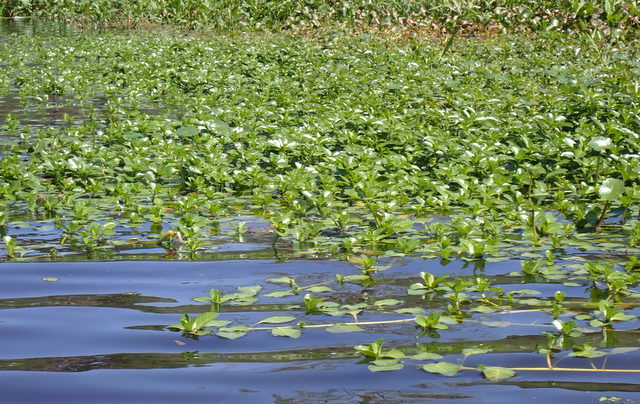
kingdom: Plantae
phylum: Tracheophyta
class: Magnoliopsida
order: Myrtales
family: Onagraceae
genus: Ludwigia
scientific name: Ludwigia peploides
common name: Floating primrose-willow
